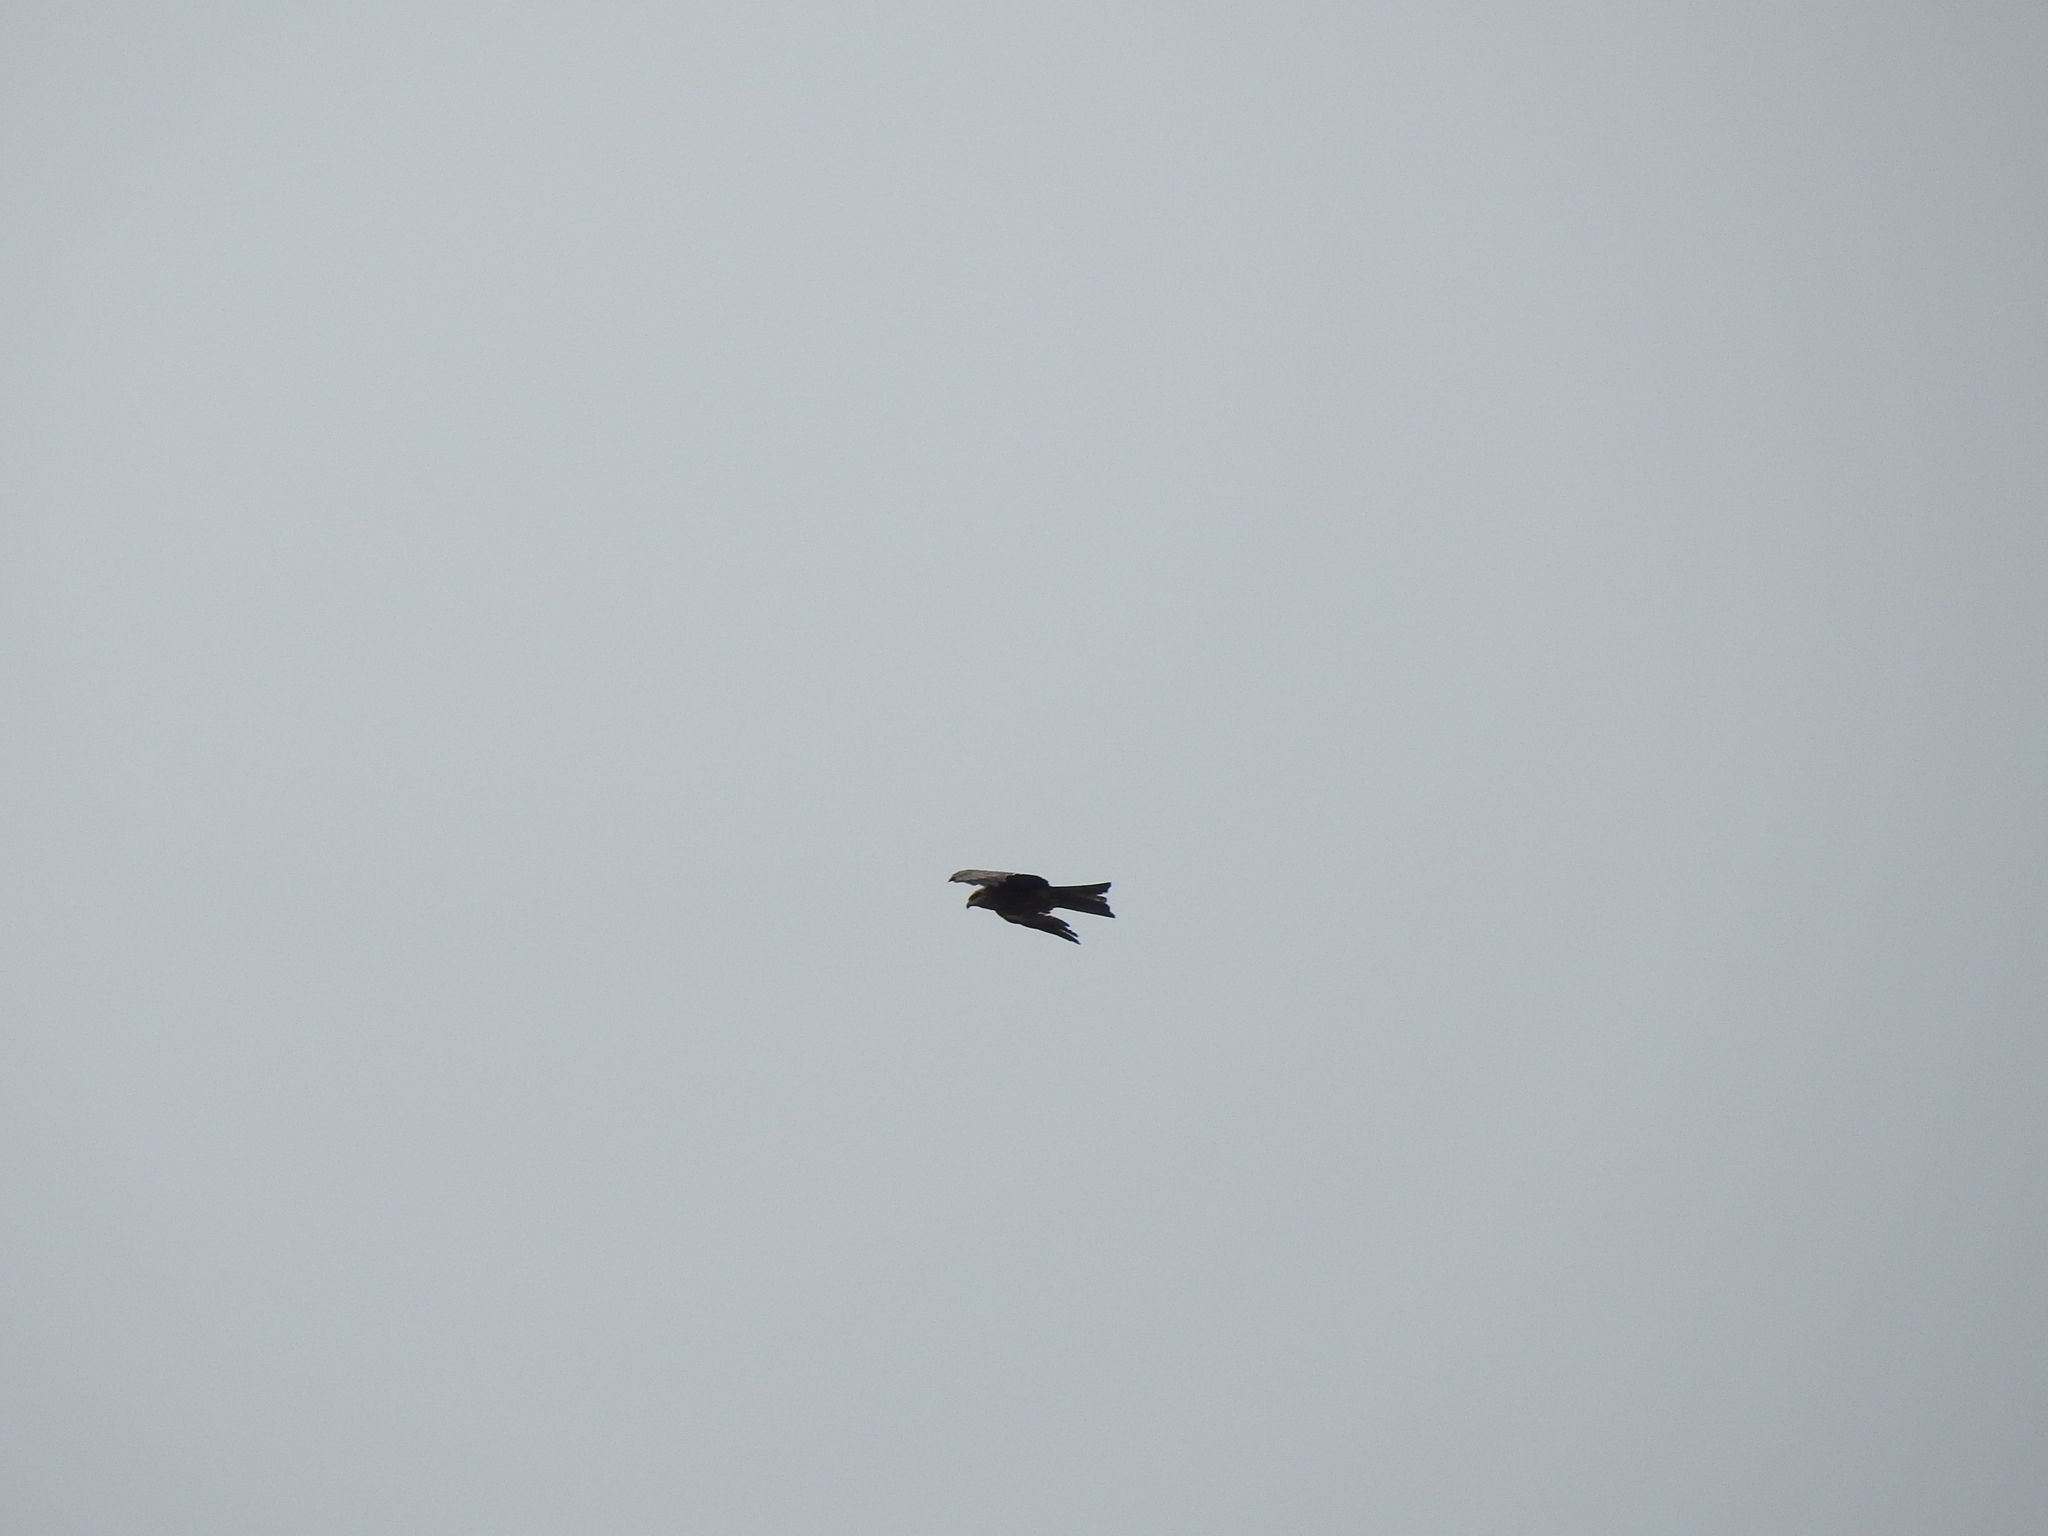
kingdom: Animalia
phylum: Chordata
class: Aves
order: Accipitriformes
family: Accipitridae
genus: Milvus
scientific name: Milvus migrans
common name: Black kite
